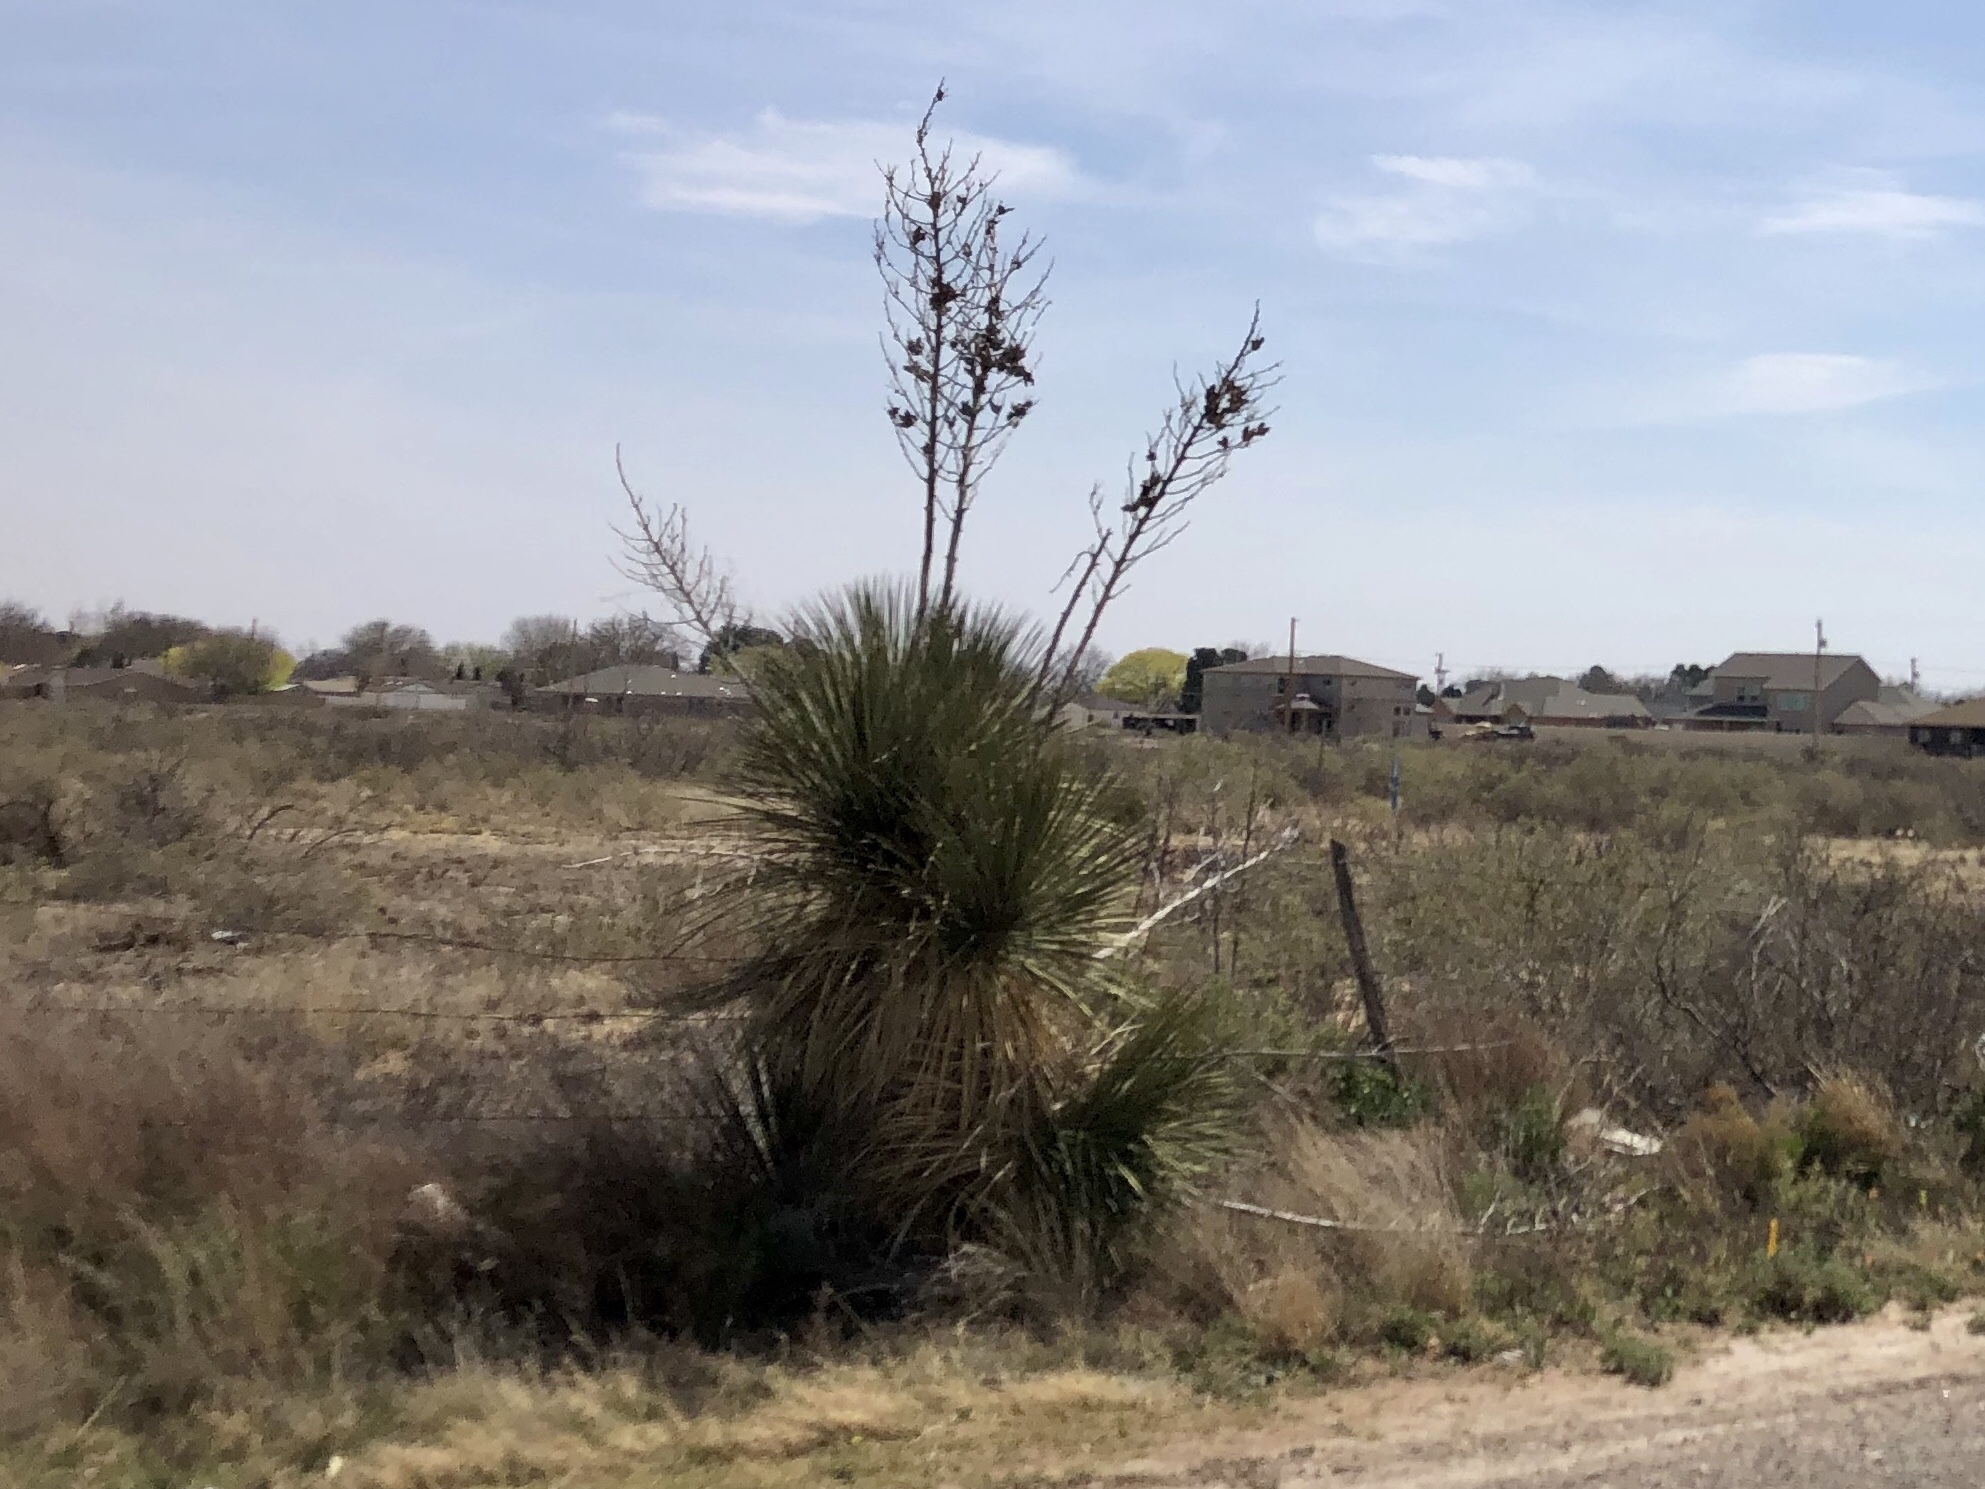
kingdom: Plantae
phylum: Tracheophyta
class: Liliopsida
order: Asparagales
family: Asparagaceae
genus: Yucca
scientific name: Yucca elata
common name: Palmella
